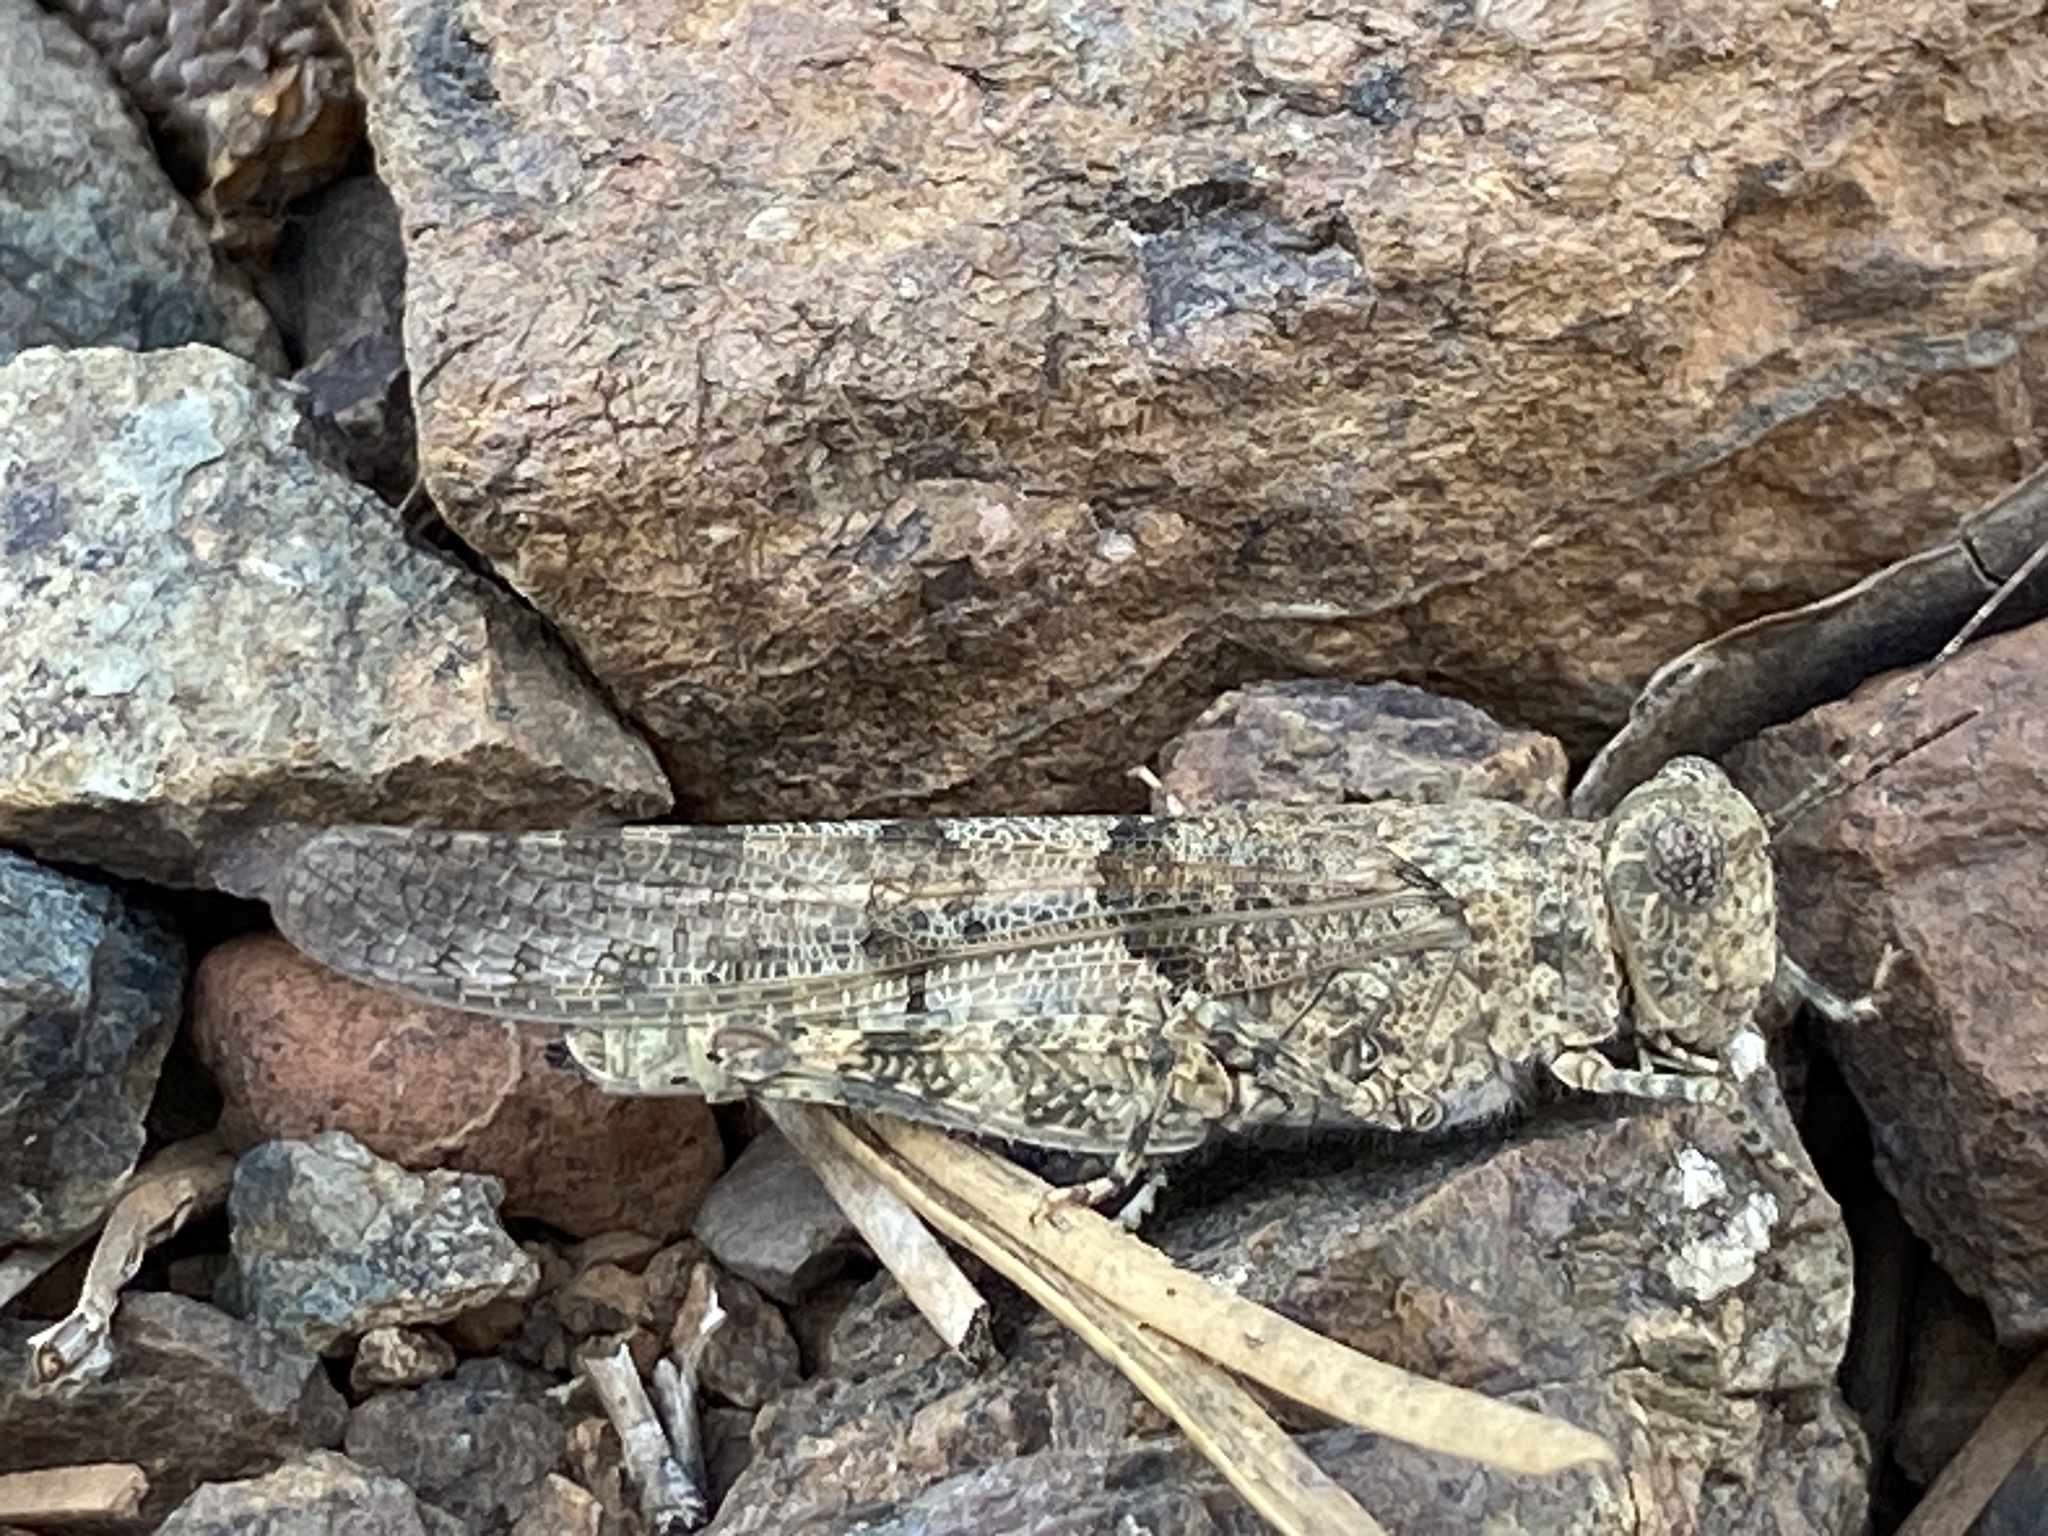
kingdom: Animalia
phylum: Arthropoda
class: Insecta
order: Orthoptera
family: Acrididae
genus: Sphingonotus
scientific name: Sphingonotus caerulans
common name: Blue-winged locust
